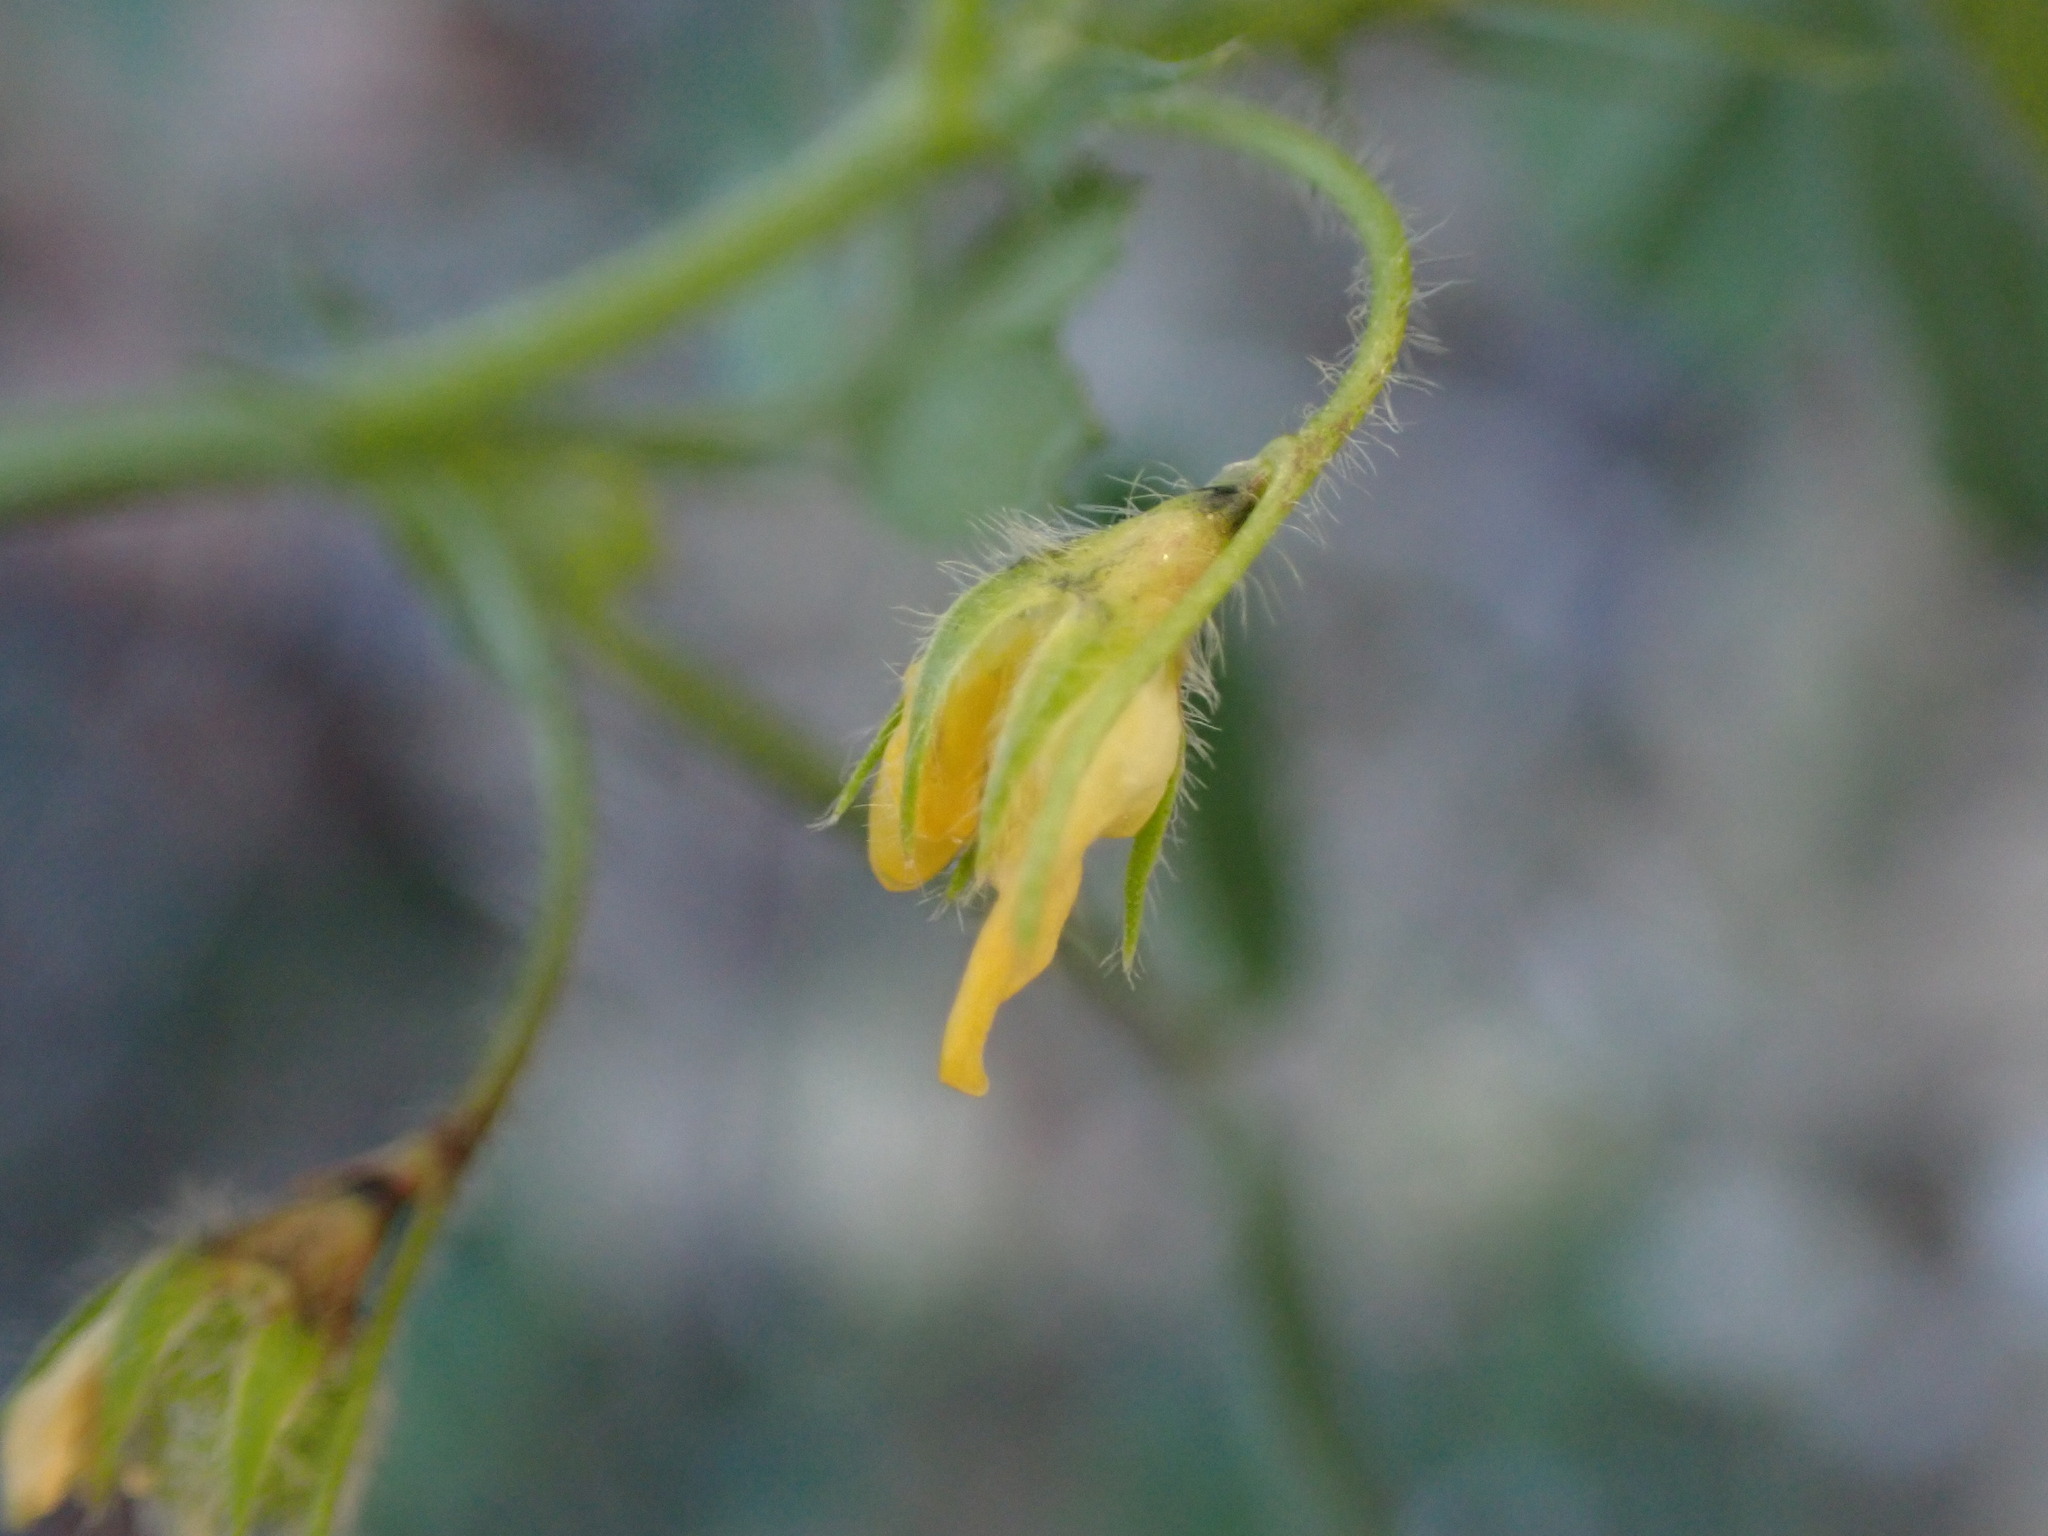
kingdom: Plantae
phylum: Tracheophyta
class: Magnoliopsida
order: Fabales
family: Fabaceae
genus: Medicago
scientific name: Medicago truncatula
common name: Strong-spined medick
